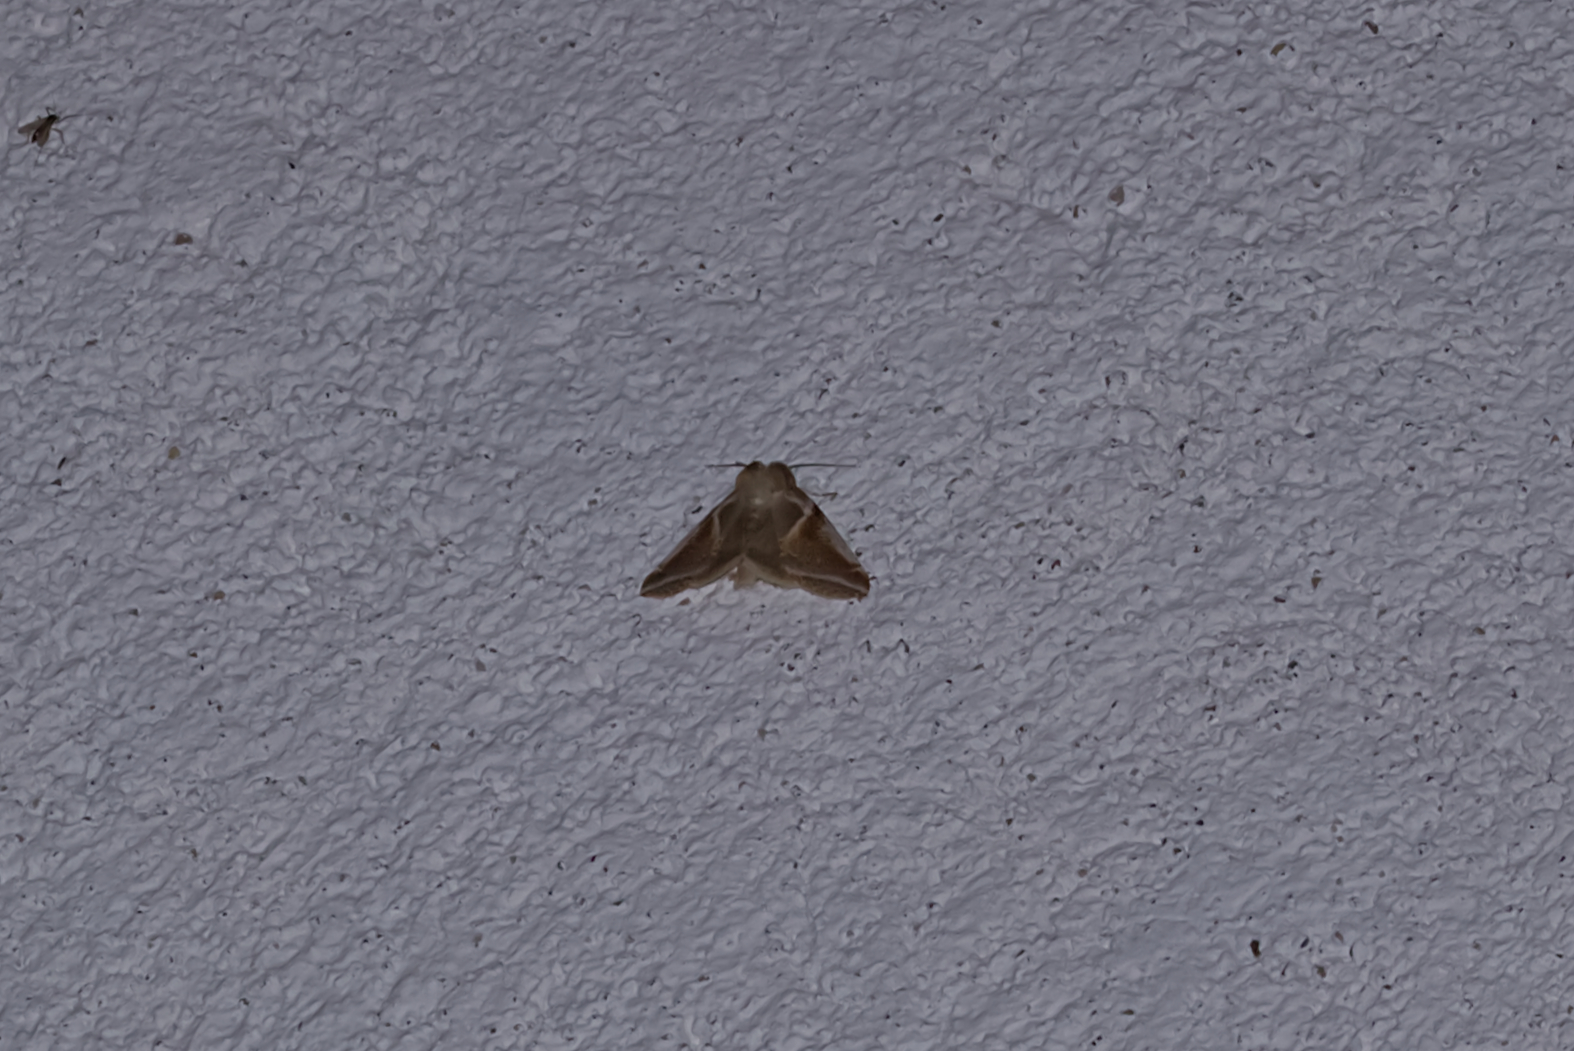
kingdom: Animalia
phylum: Arthropoda
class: Insecta
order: Lepidoptera
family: Drepanidae
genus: Habrosyne
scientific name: Habrosyne pyritoides
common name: Buff arches
